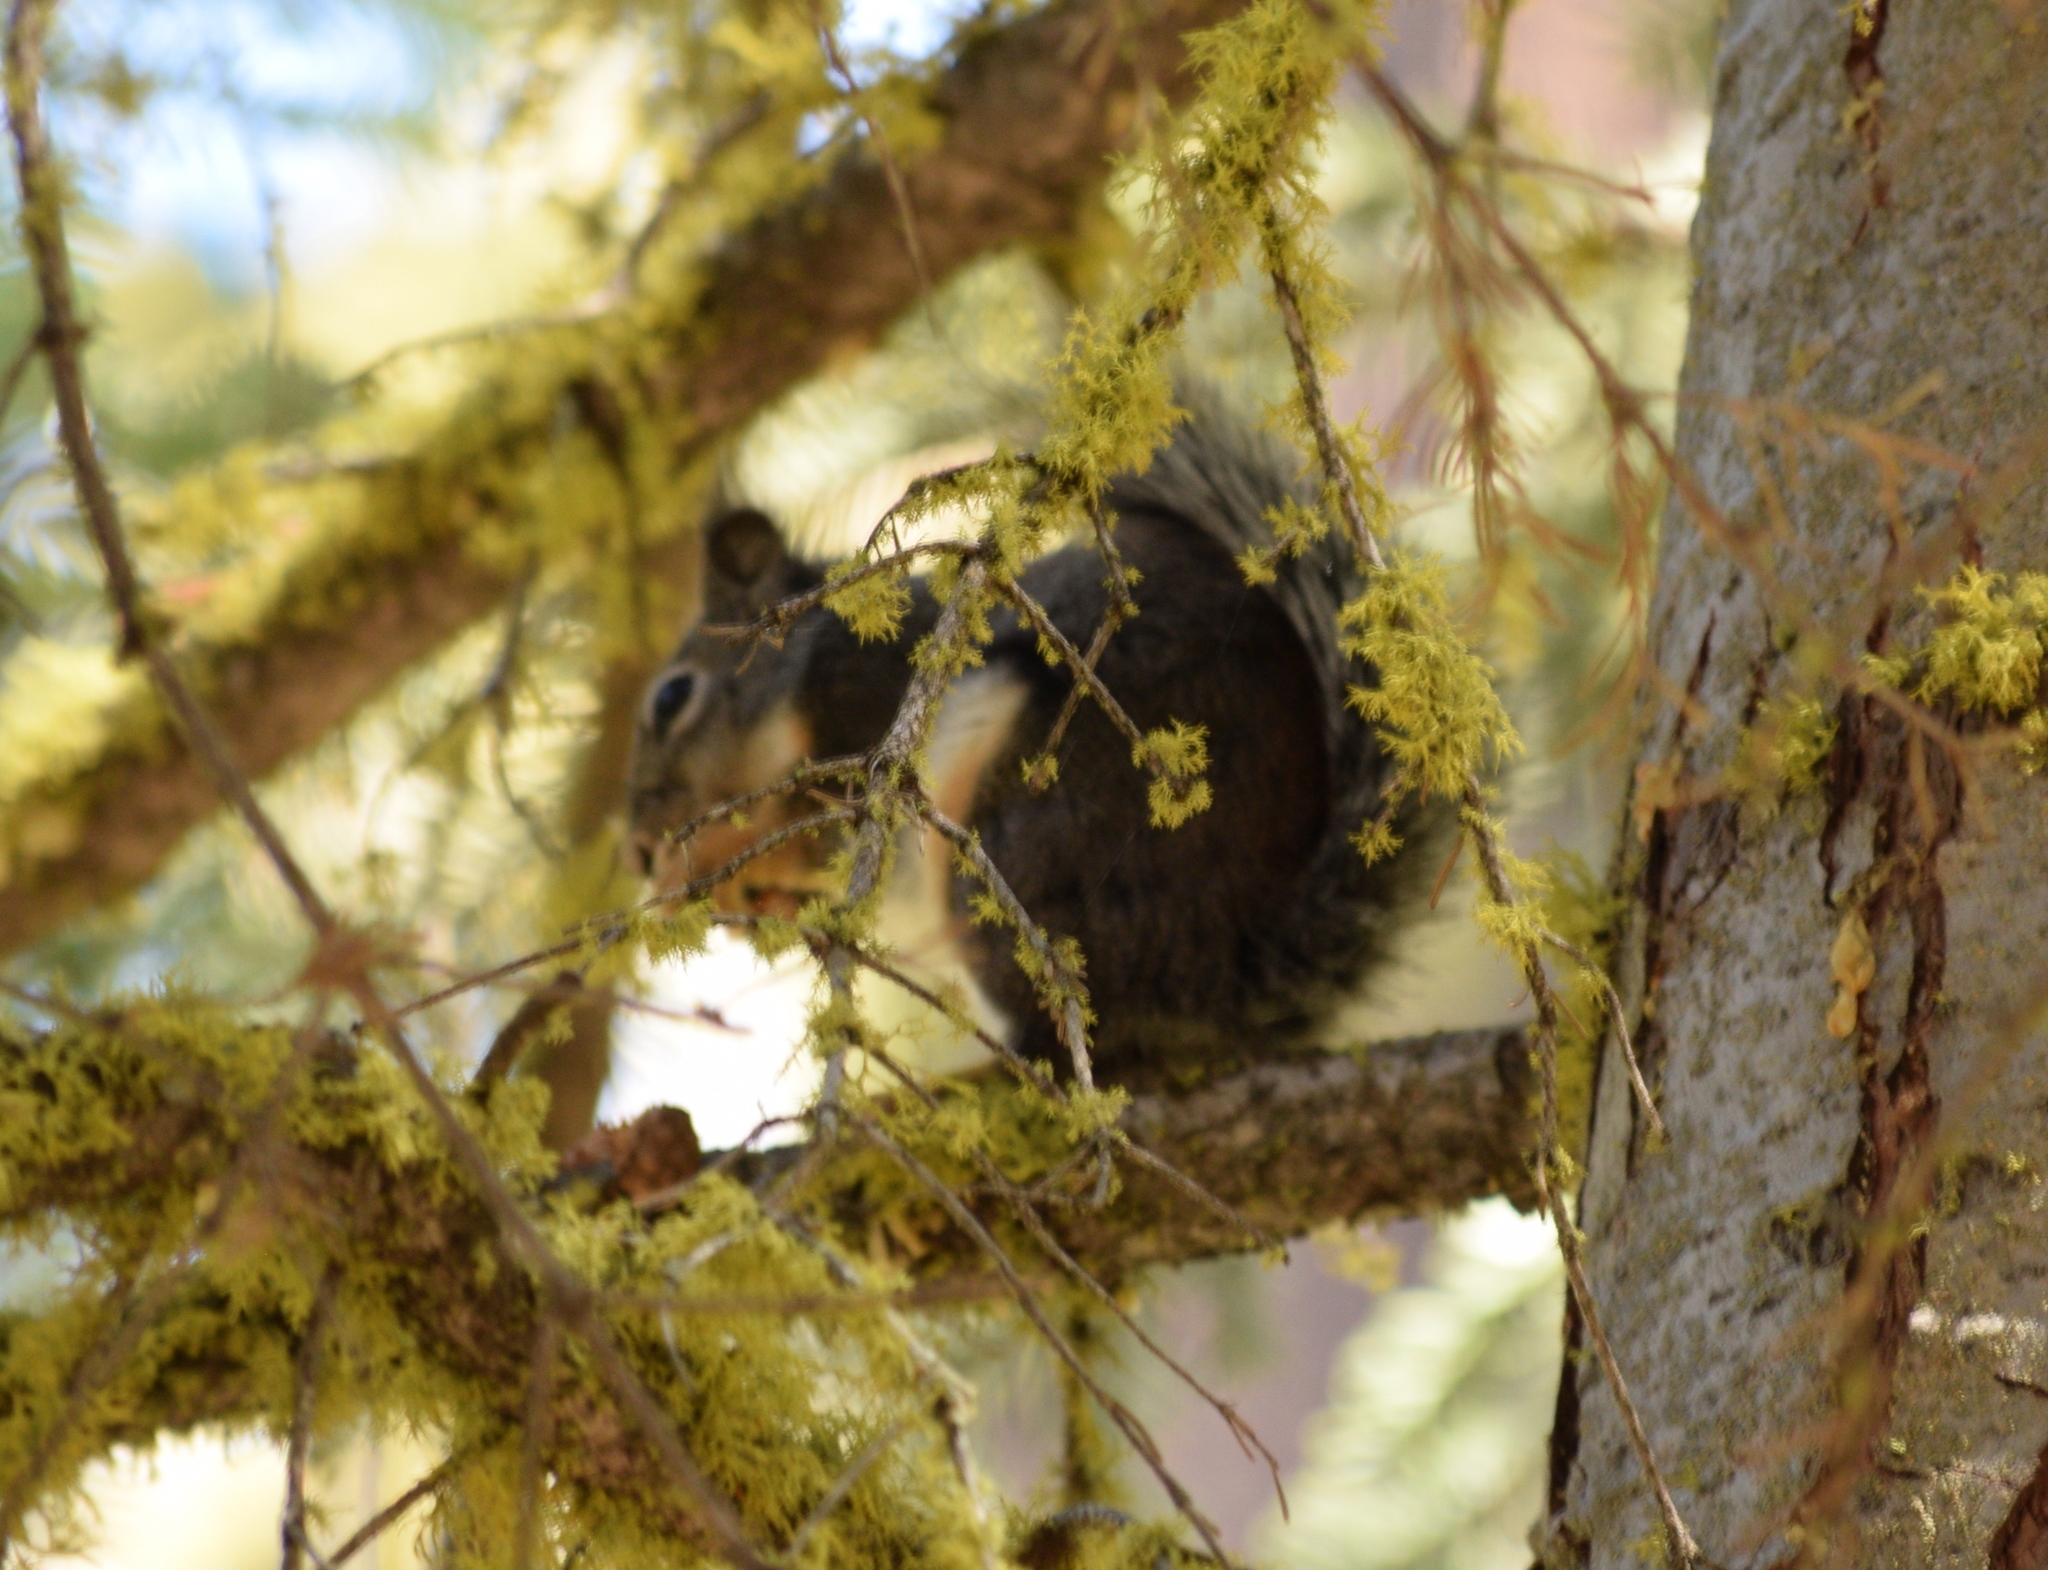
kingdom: Animalia
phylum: Chordata
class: Mammalia
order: Rodentia
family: Sciuridae
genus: Tamiasciurus
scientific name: Tamiasciurus douglasii
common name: Douglas's squirrel
